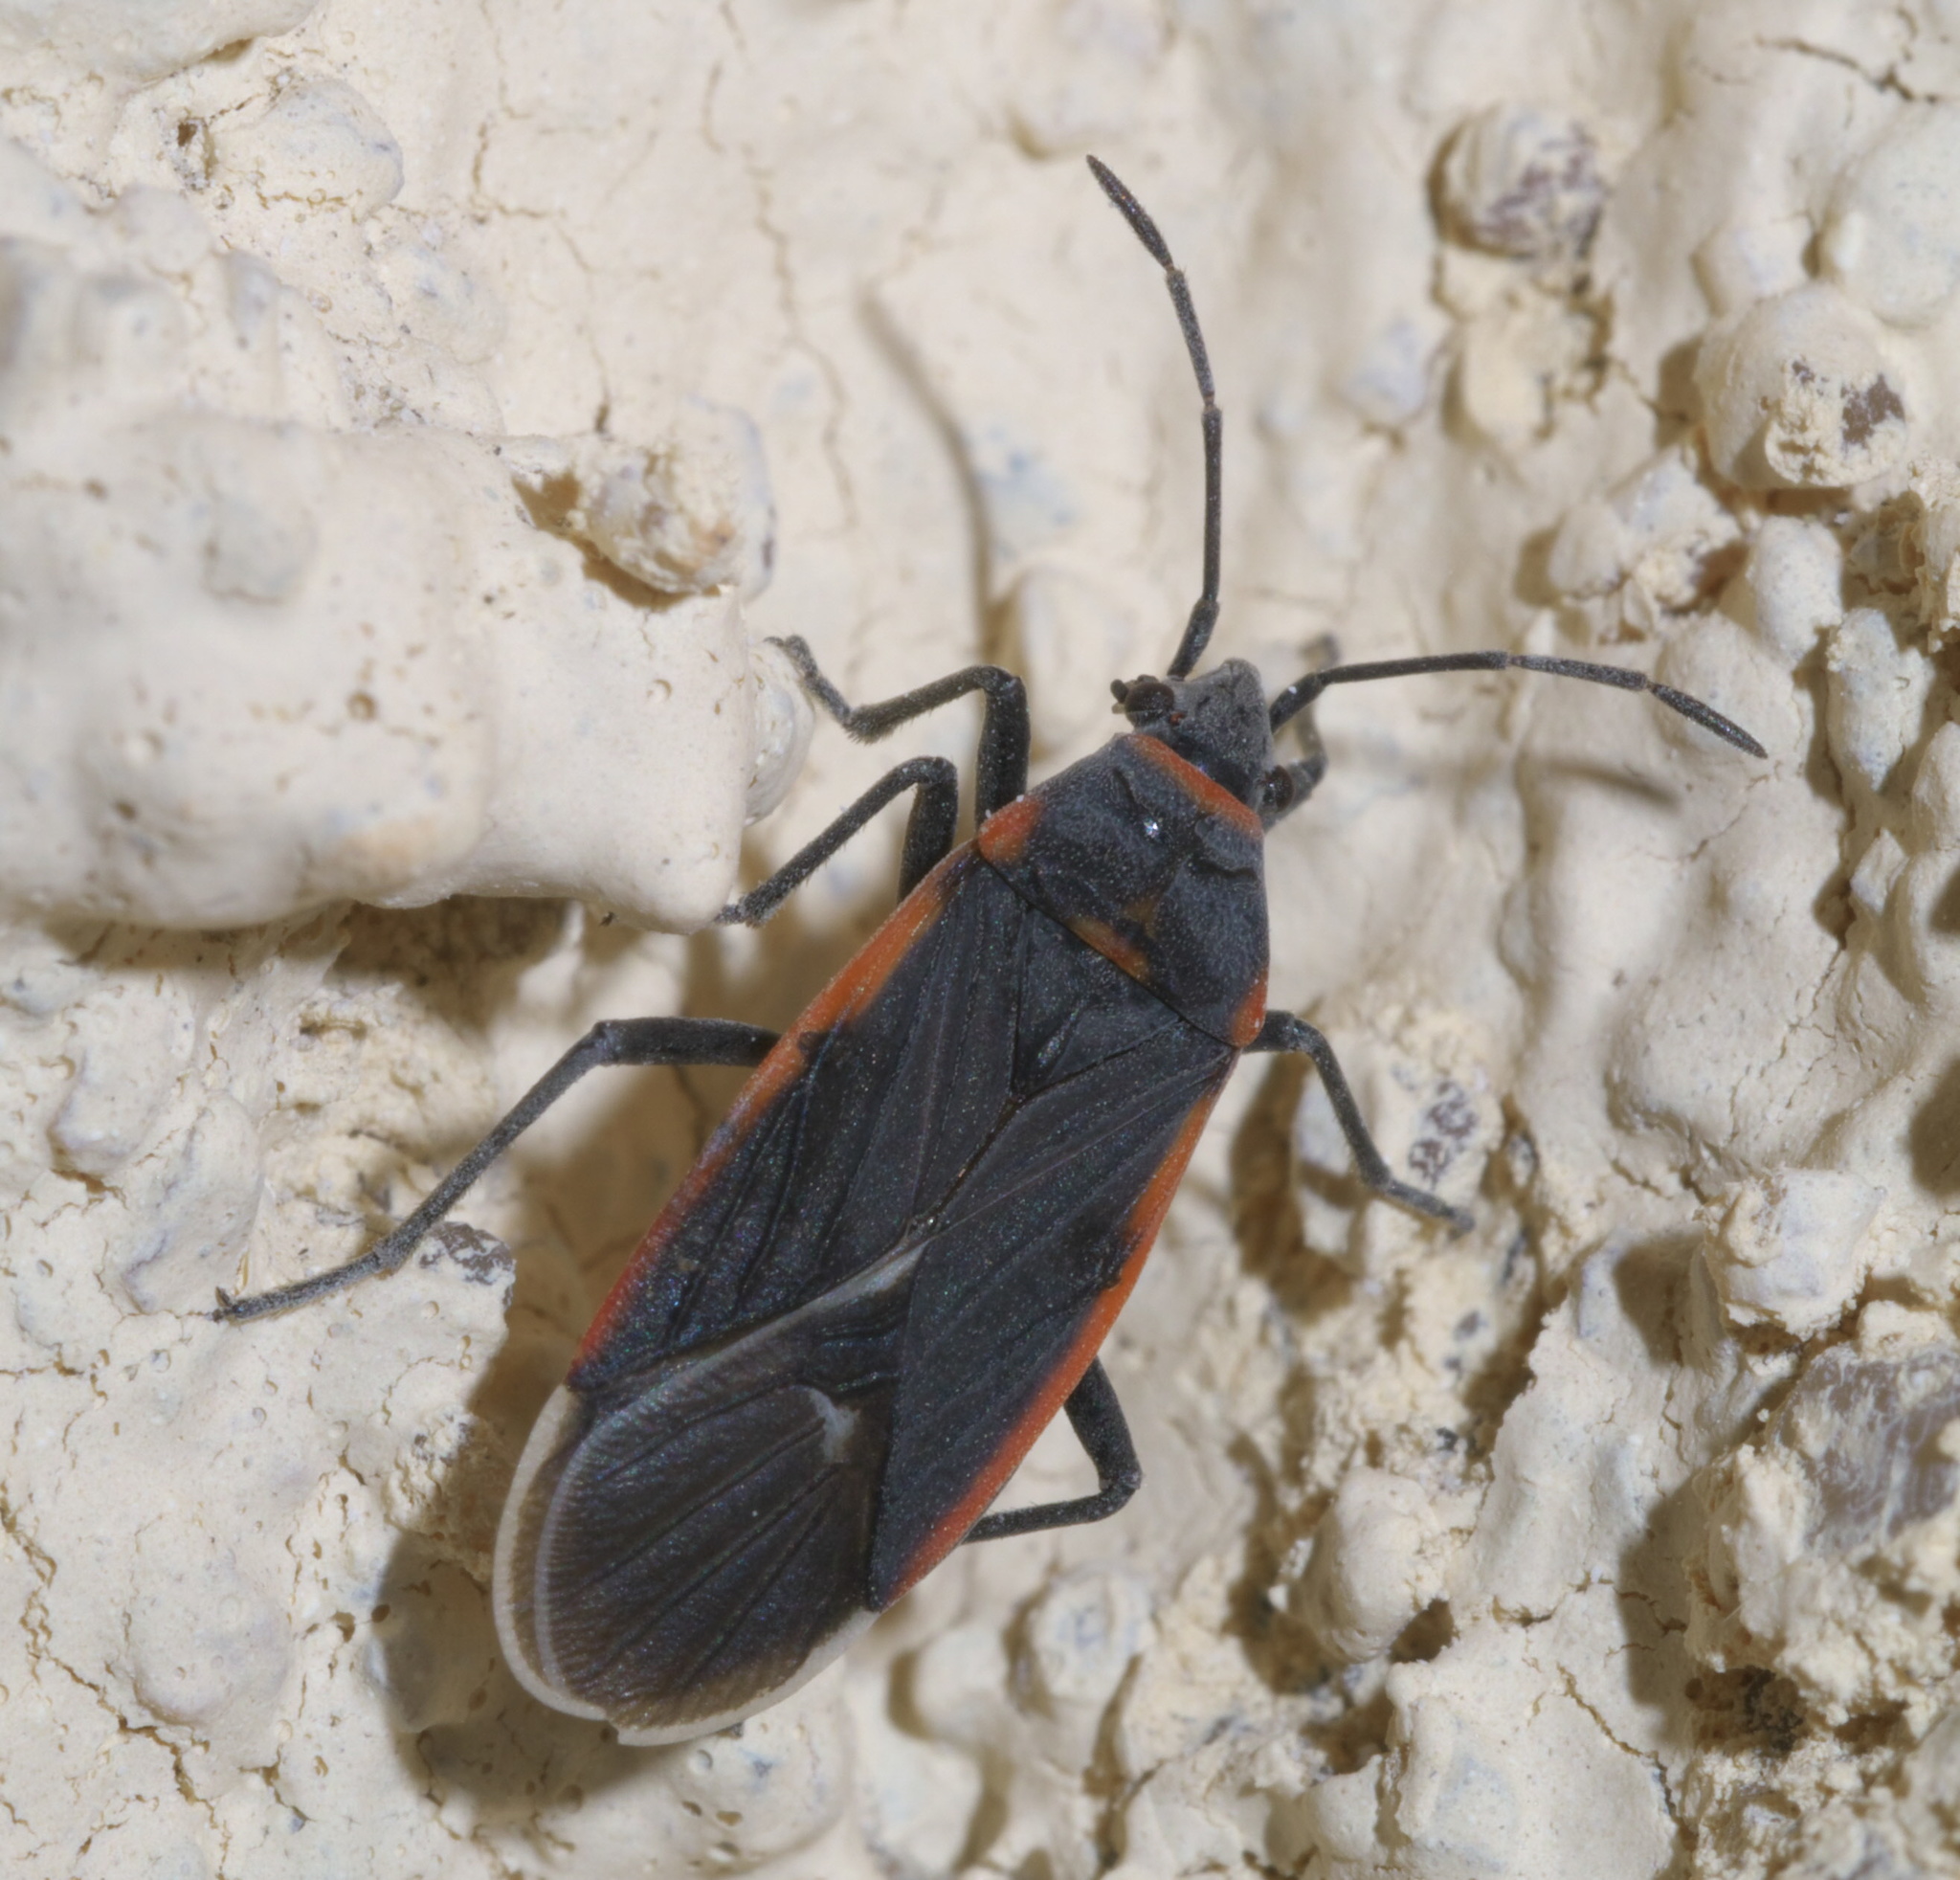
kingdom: Animalia
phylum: Arthropoda
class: Insecta
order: Hemiptera
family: Lygaeidae
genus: Melacoryphus
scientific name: Melacoryphus lateralis
